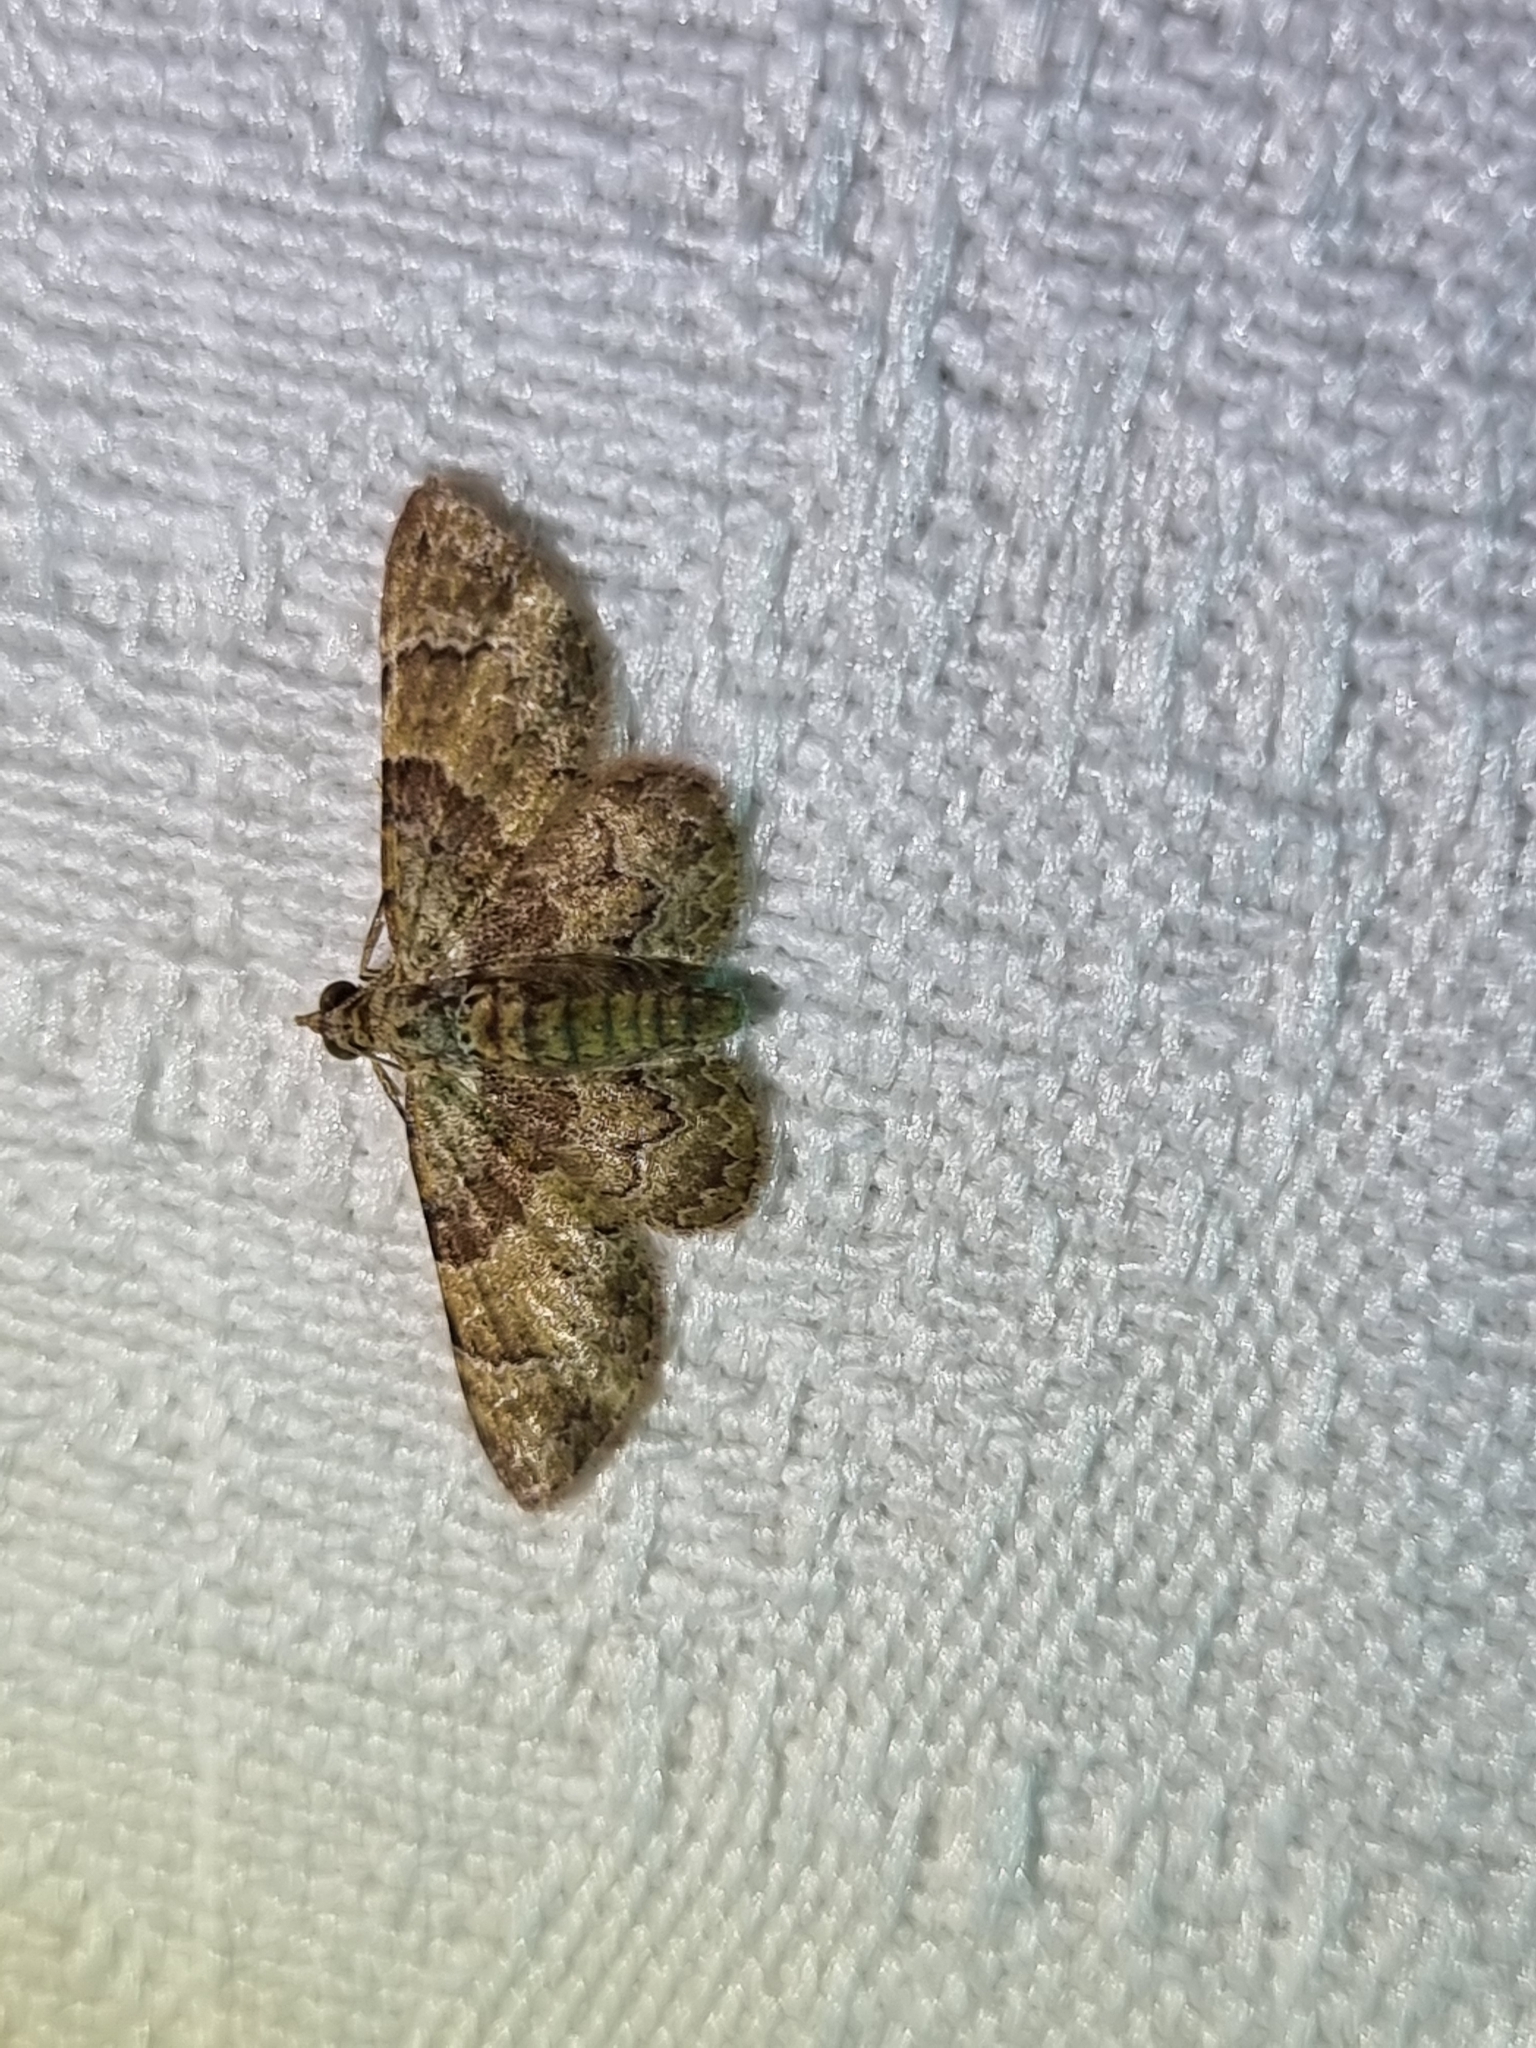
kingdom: Animalia
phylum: Arthropoda
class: Insecta
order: Lepidoptera
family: Geometridae
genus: Gymnoscelis
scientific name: Gymnoscelis derogata
